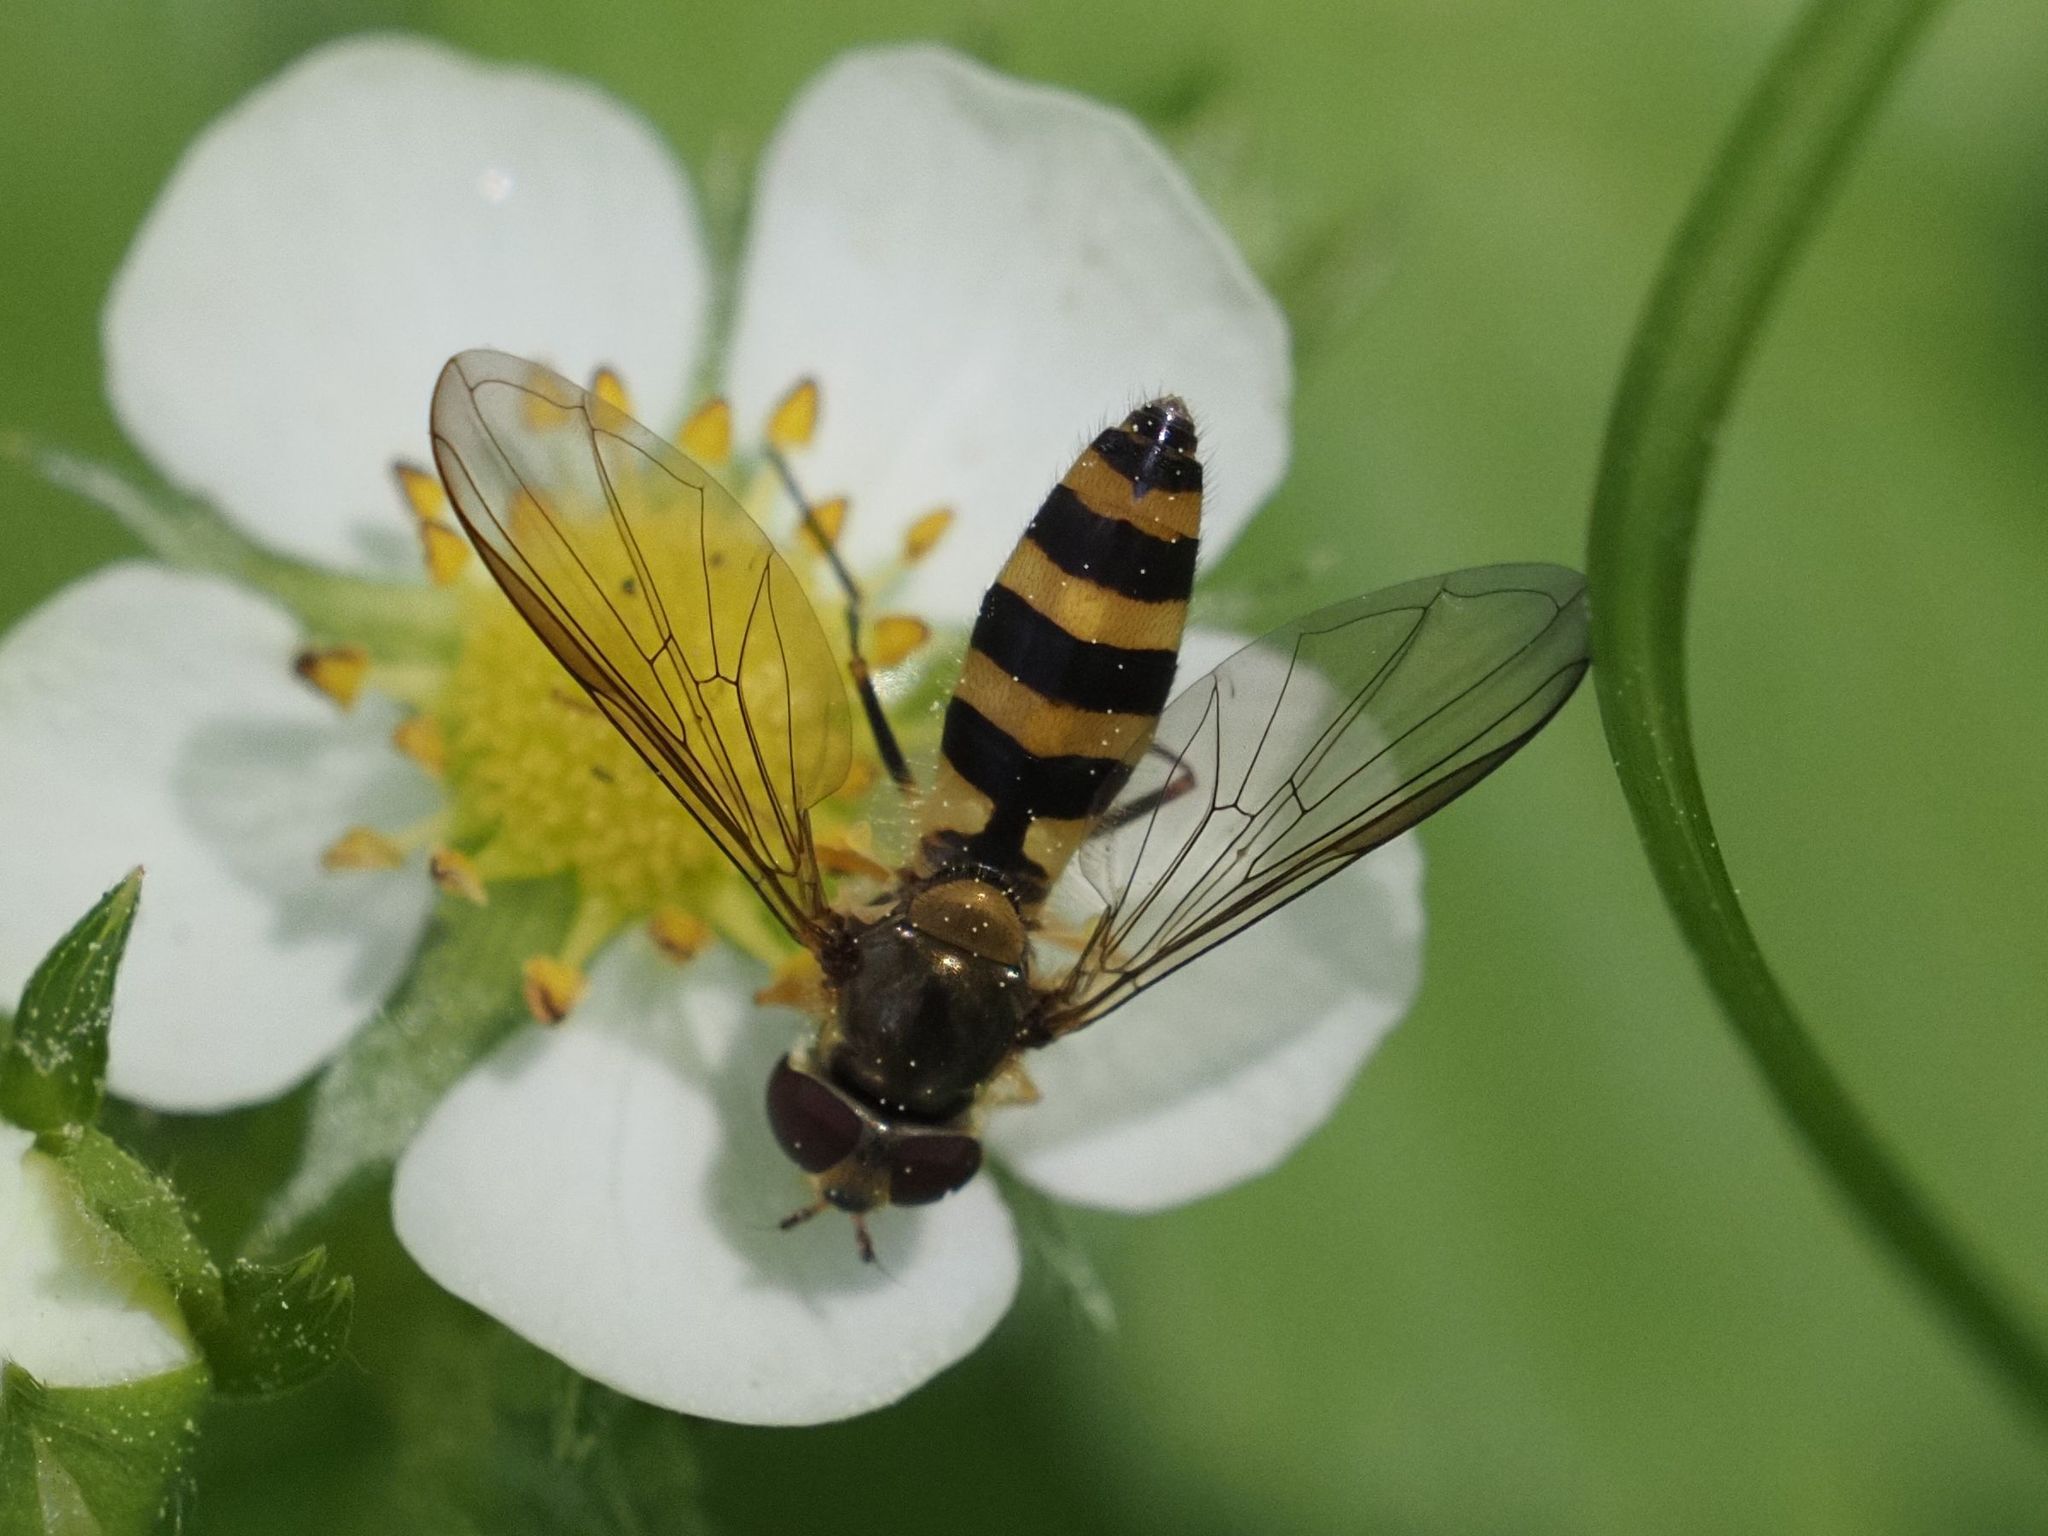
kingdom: Animalia
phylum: Arthropoda
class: Insecta
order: Diptera
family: Syrphidae
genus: Meliscaeva
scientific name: Meliscaeva cinctella
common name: American thintail fly
